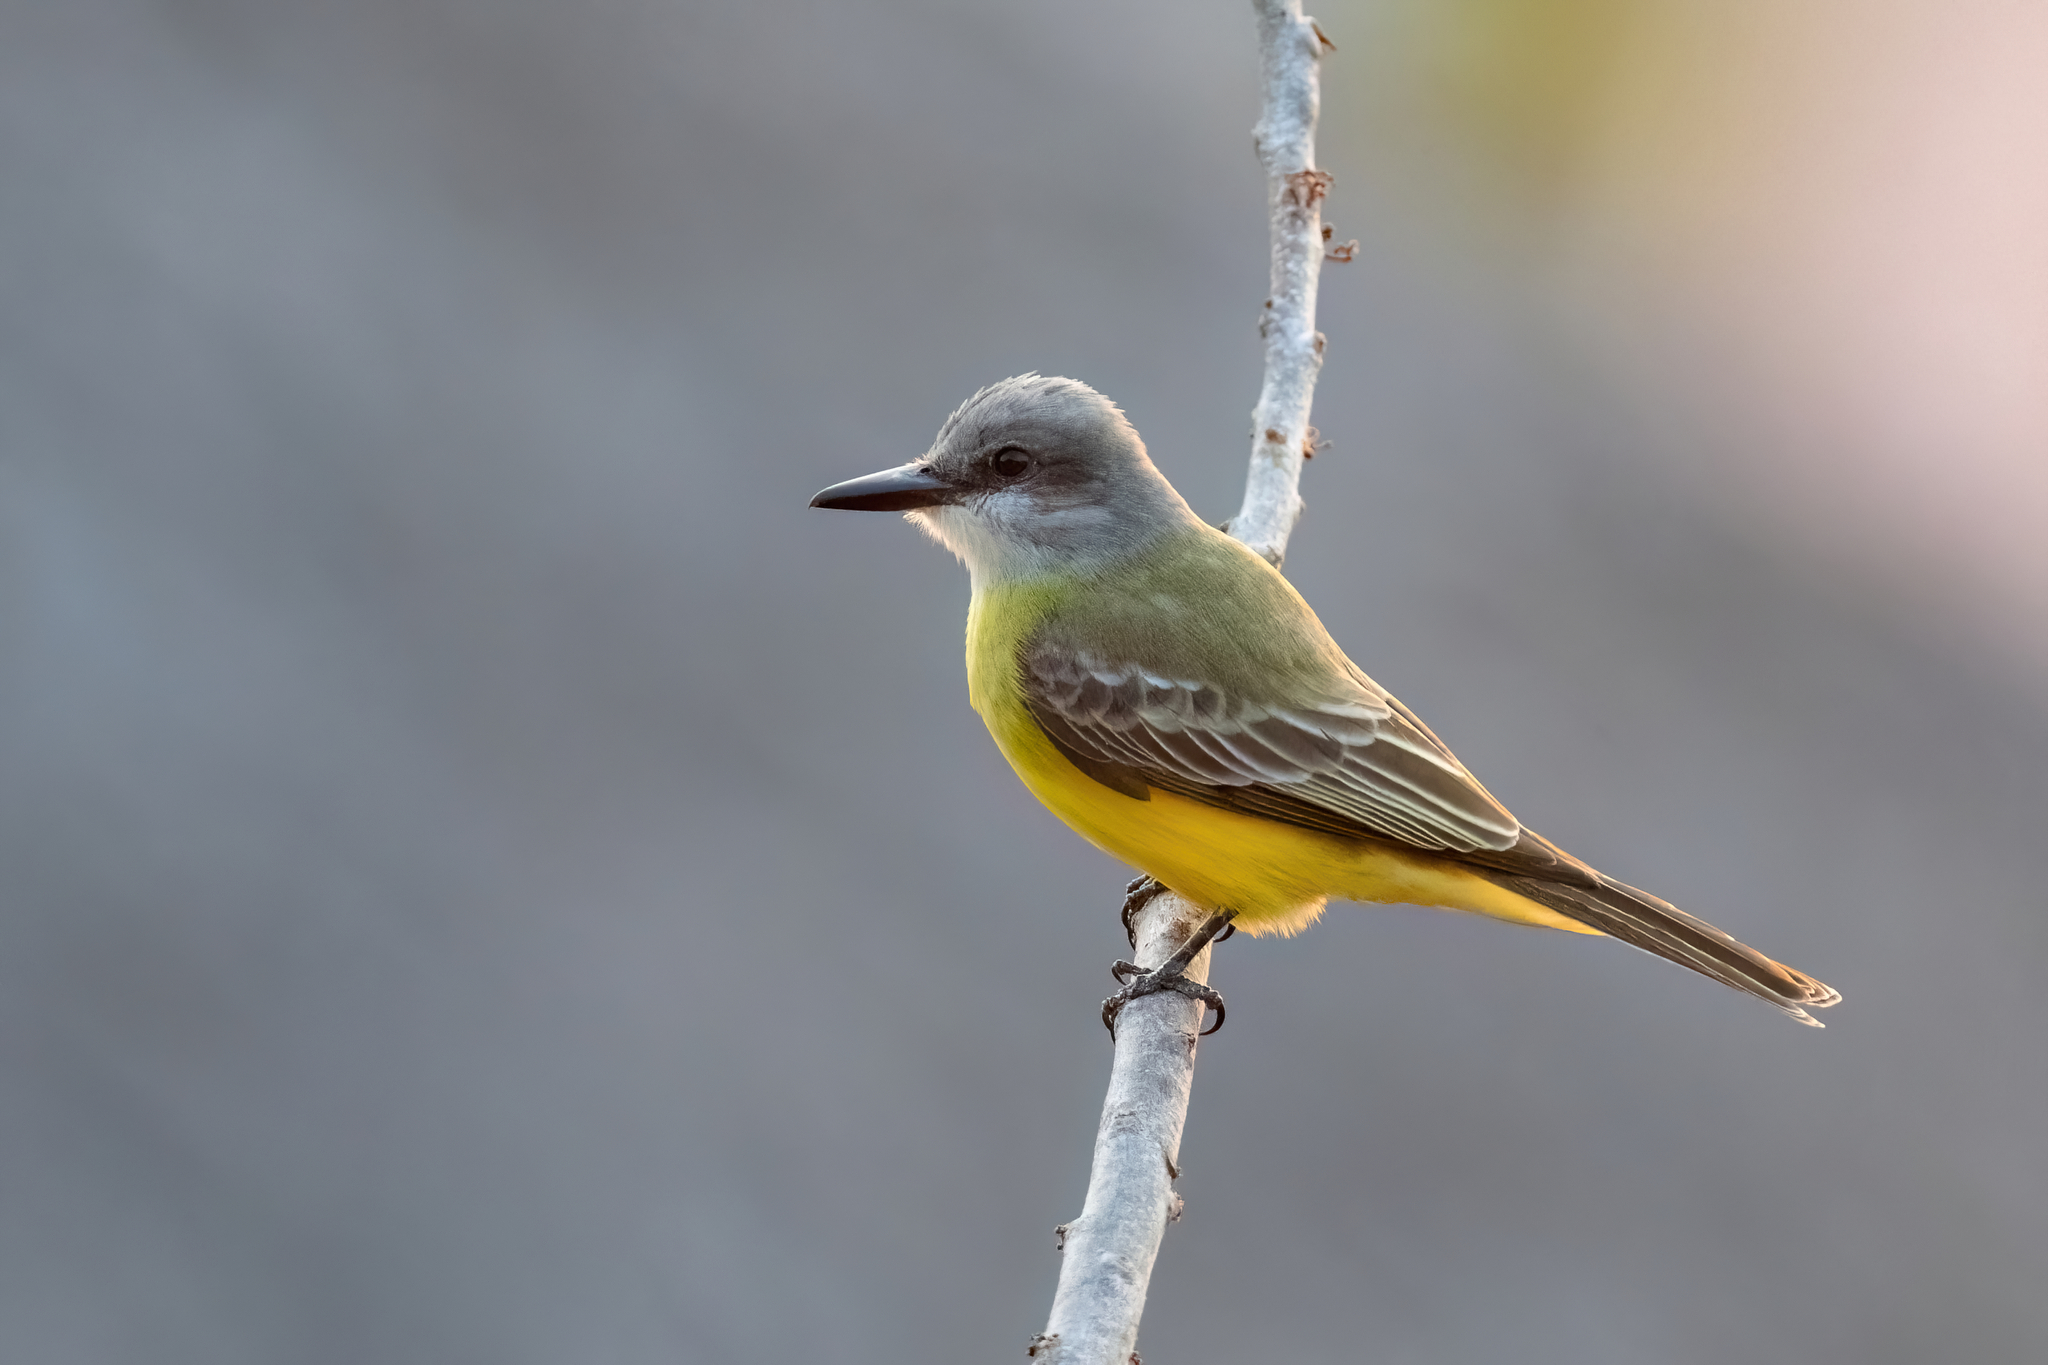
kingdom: Animalia
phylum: Chordata
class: Aves
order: Passeriformes
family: Tyrannidae
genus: Tyrannus
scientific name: Tyrannus melancholicus
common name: Tropical kingbird
